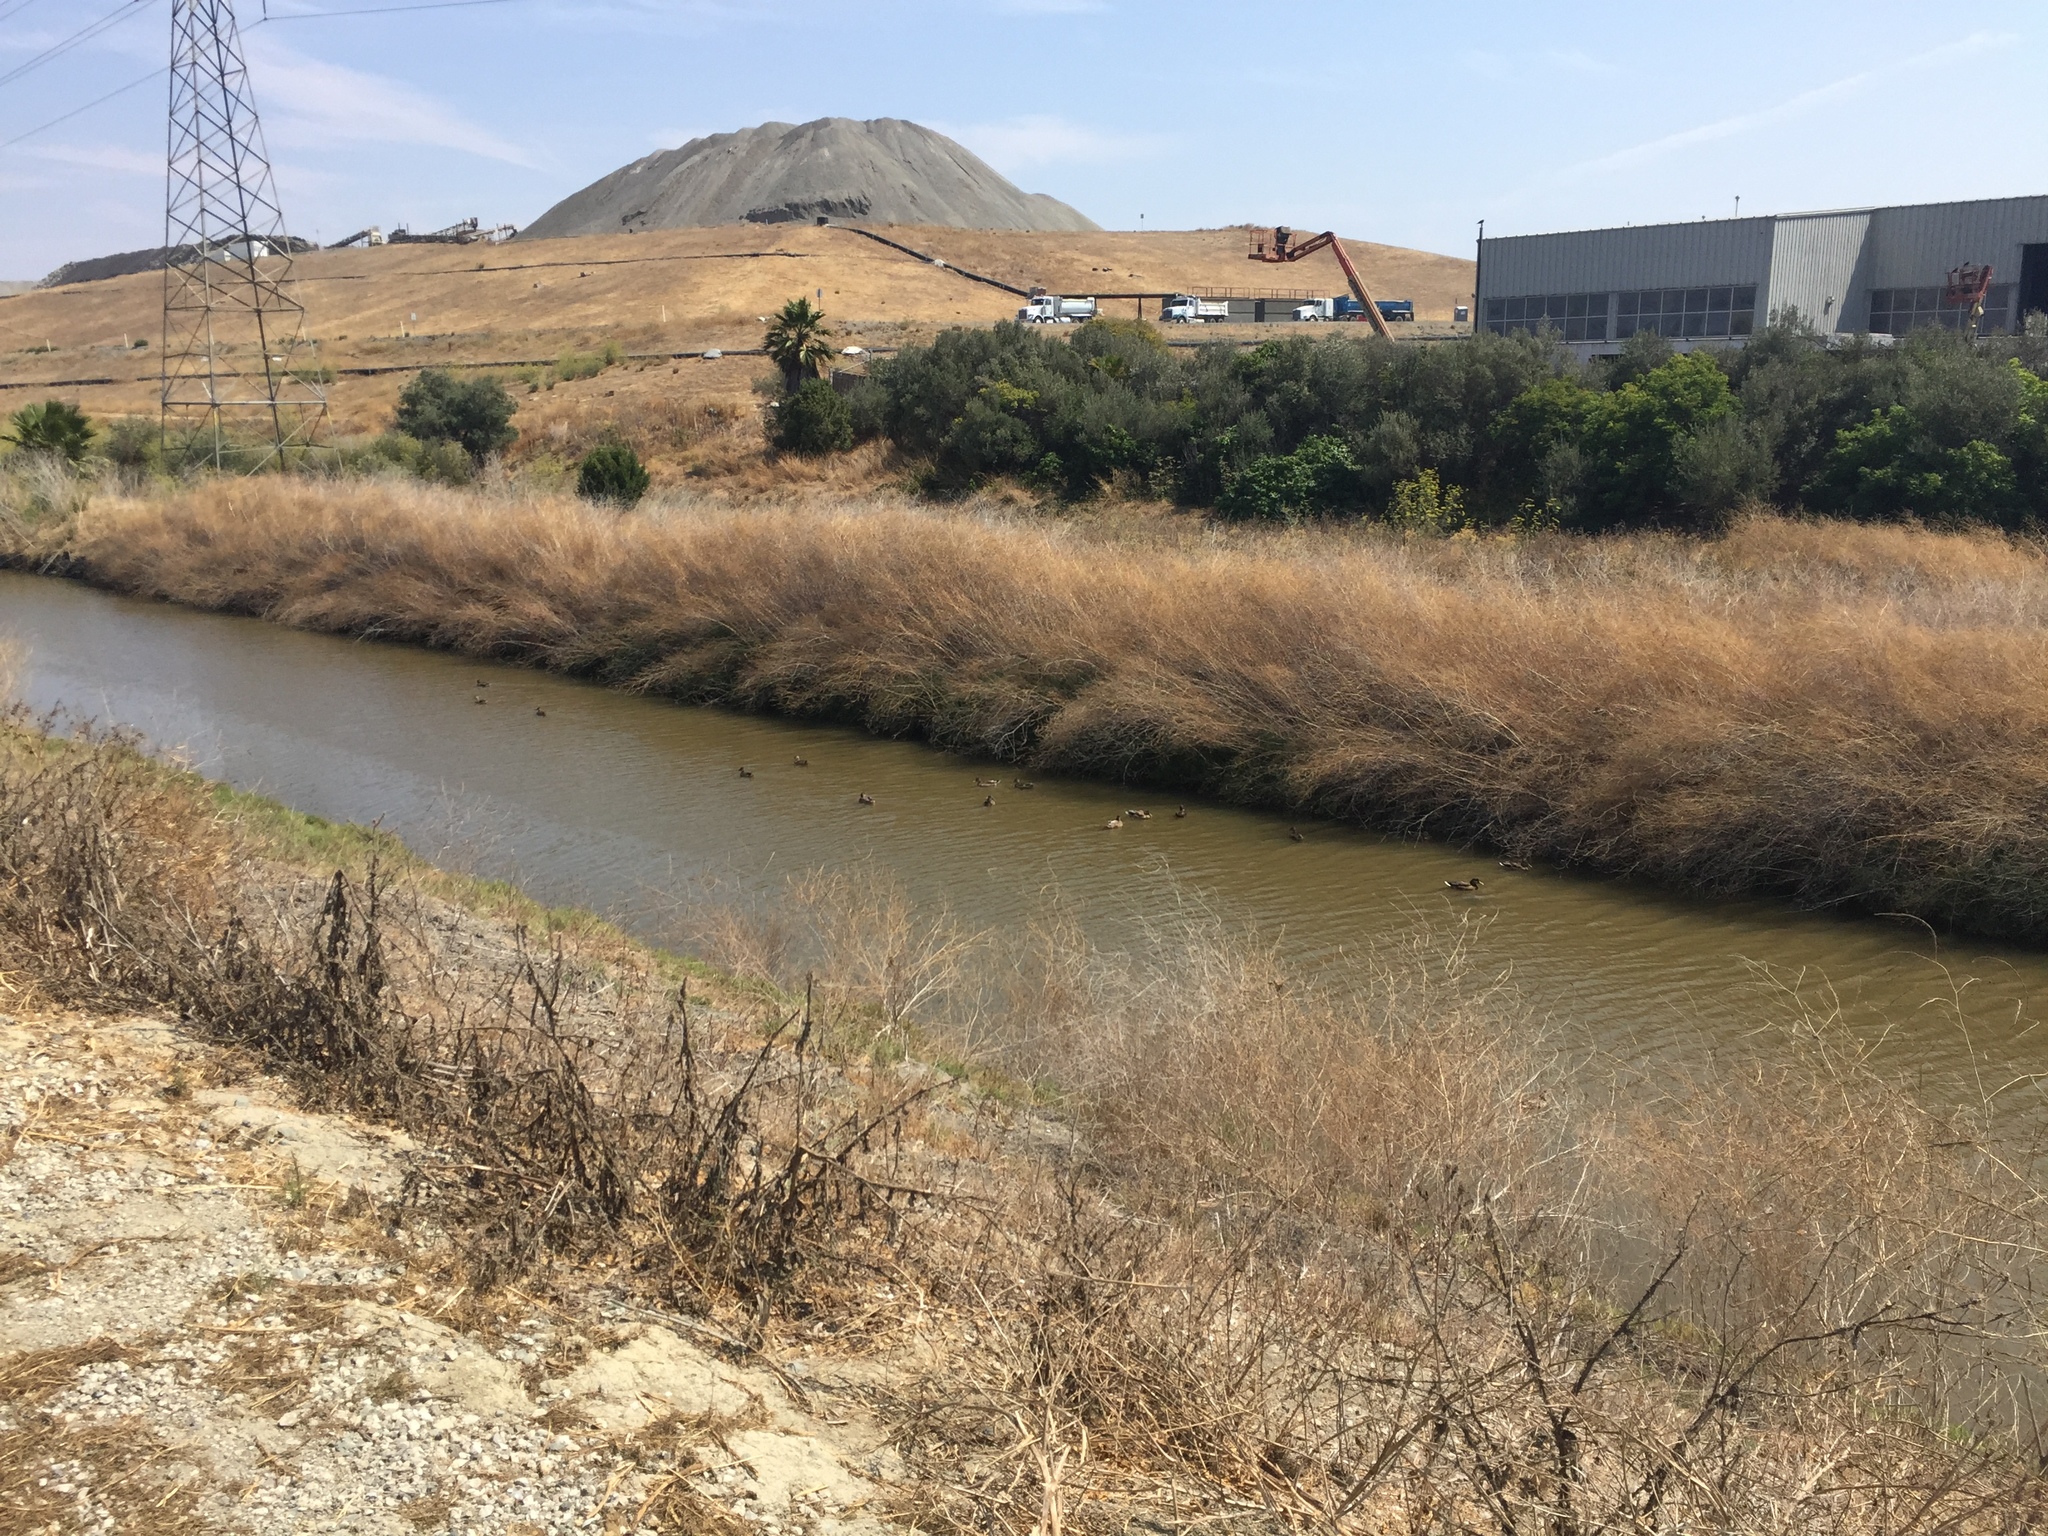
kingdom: Animalia
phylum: Chordata
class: Aves
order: Anseriformes
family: Anatidae
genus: Anas
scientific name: Anas platyrhynchos
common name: Mallard
